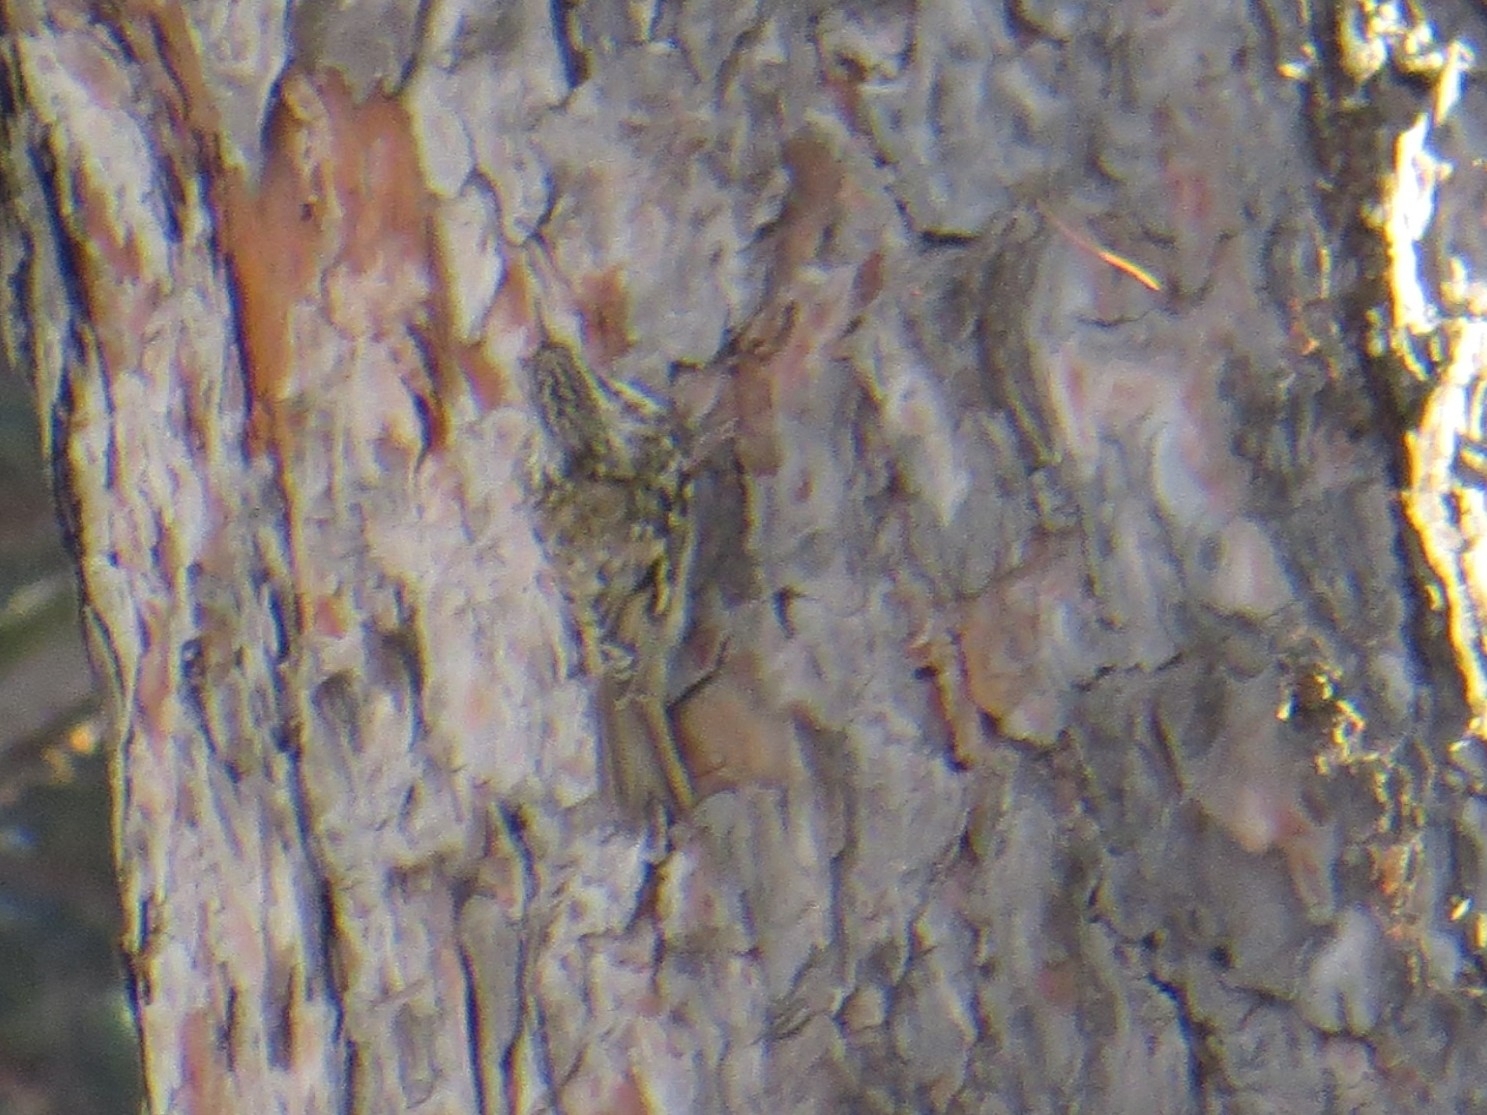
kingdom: Animalia
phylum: Chordata
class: Aves
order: Passeriformes
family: Certhiidae
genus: Certhia
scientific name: Certhia familiaris
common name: Eurasian treecreeper
